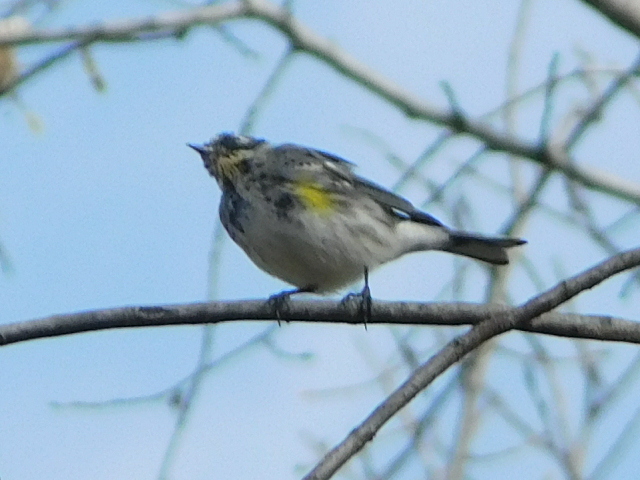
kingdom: Animalia
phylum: Chordata
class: Aves
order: Passeriformes
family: Parulidae
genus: Setophaga
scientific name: Setophaga coronata
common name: Myrtle warbler
